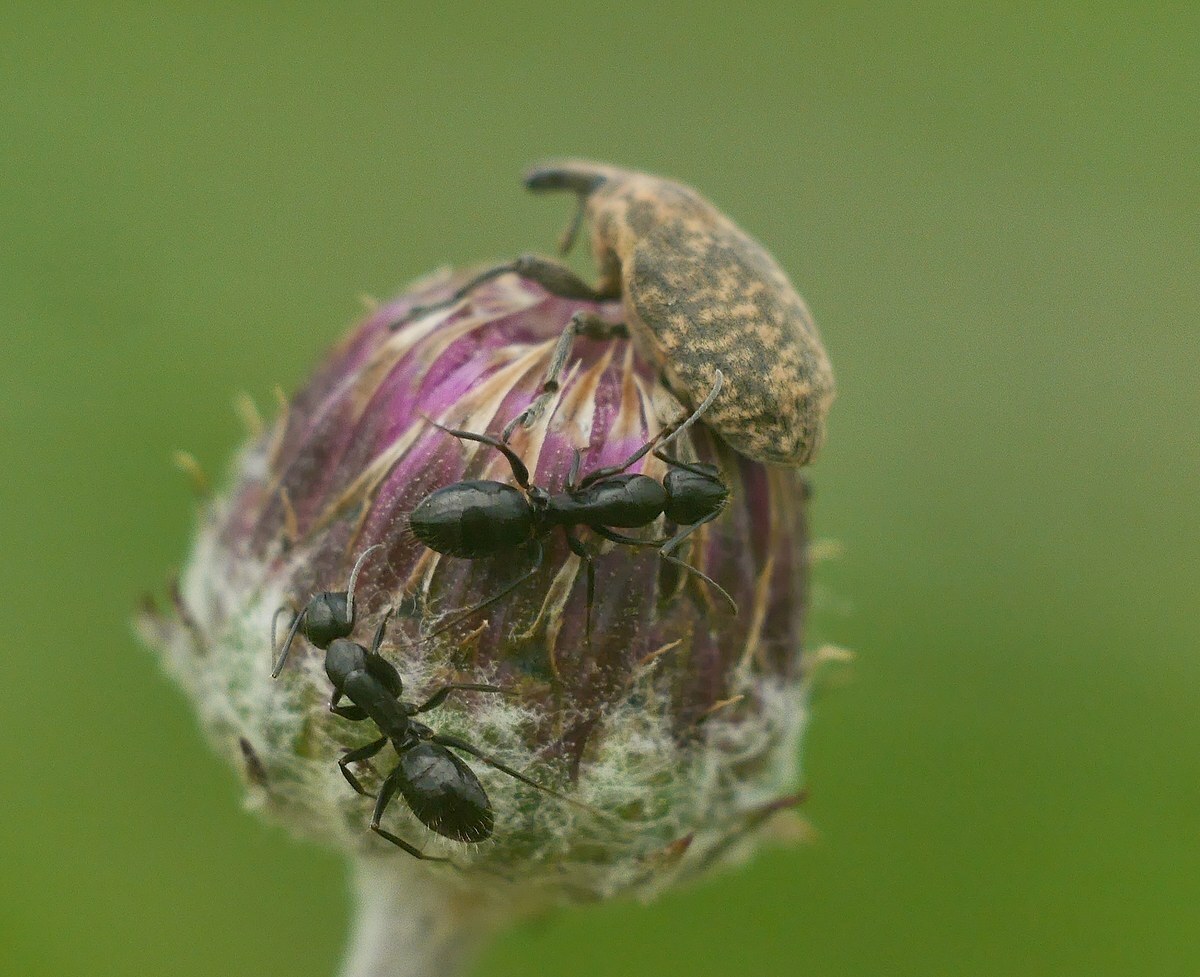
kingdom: Animalia
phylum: Arthropoda
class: Insecta
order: Hymenoptera
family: Formicidae
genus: Camponotus
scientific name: Camponotus aethiops
